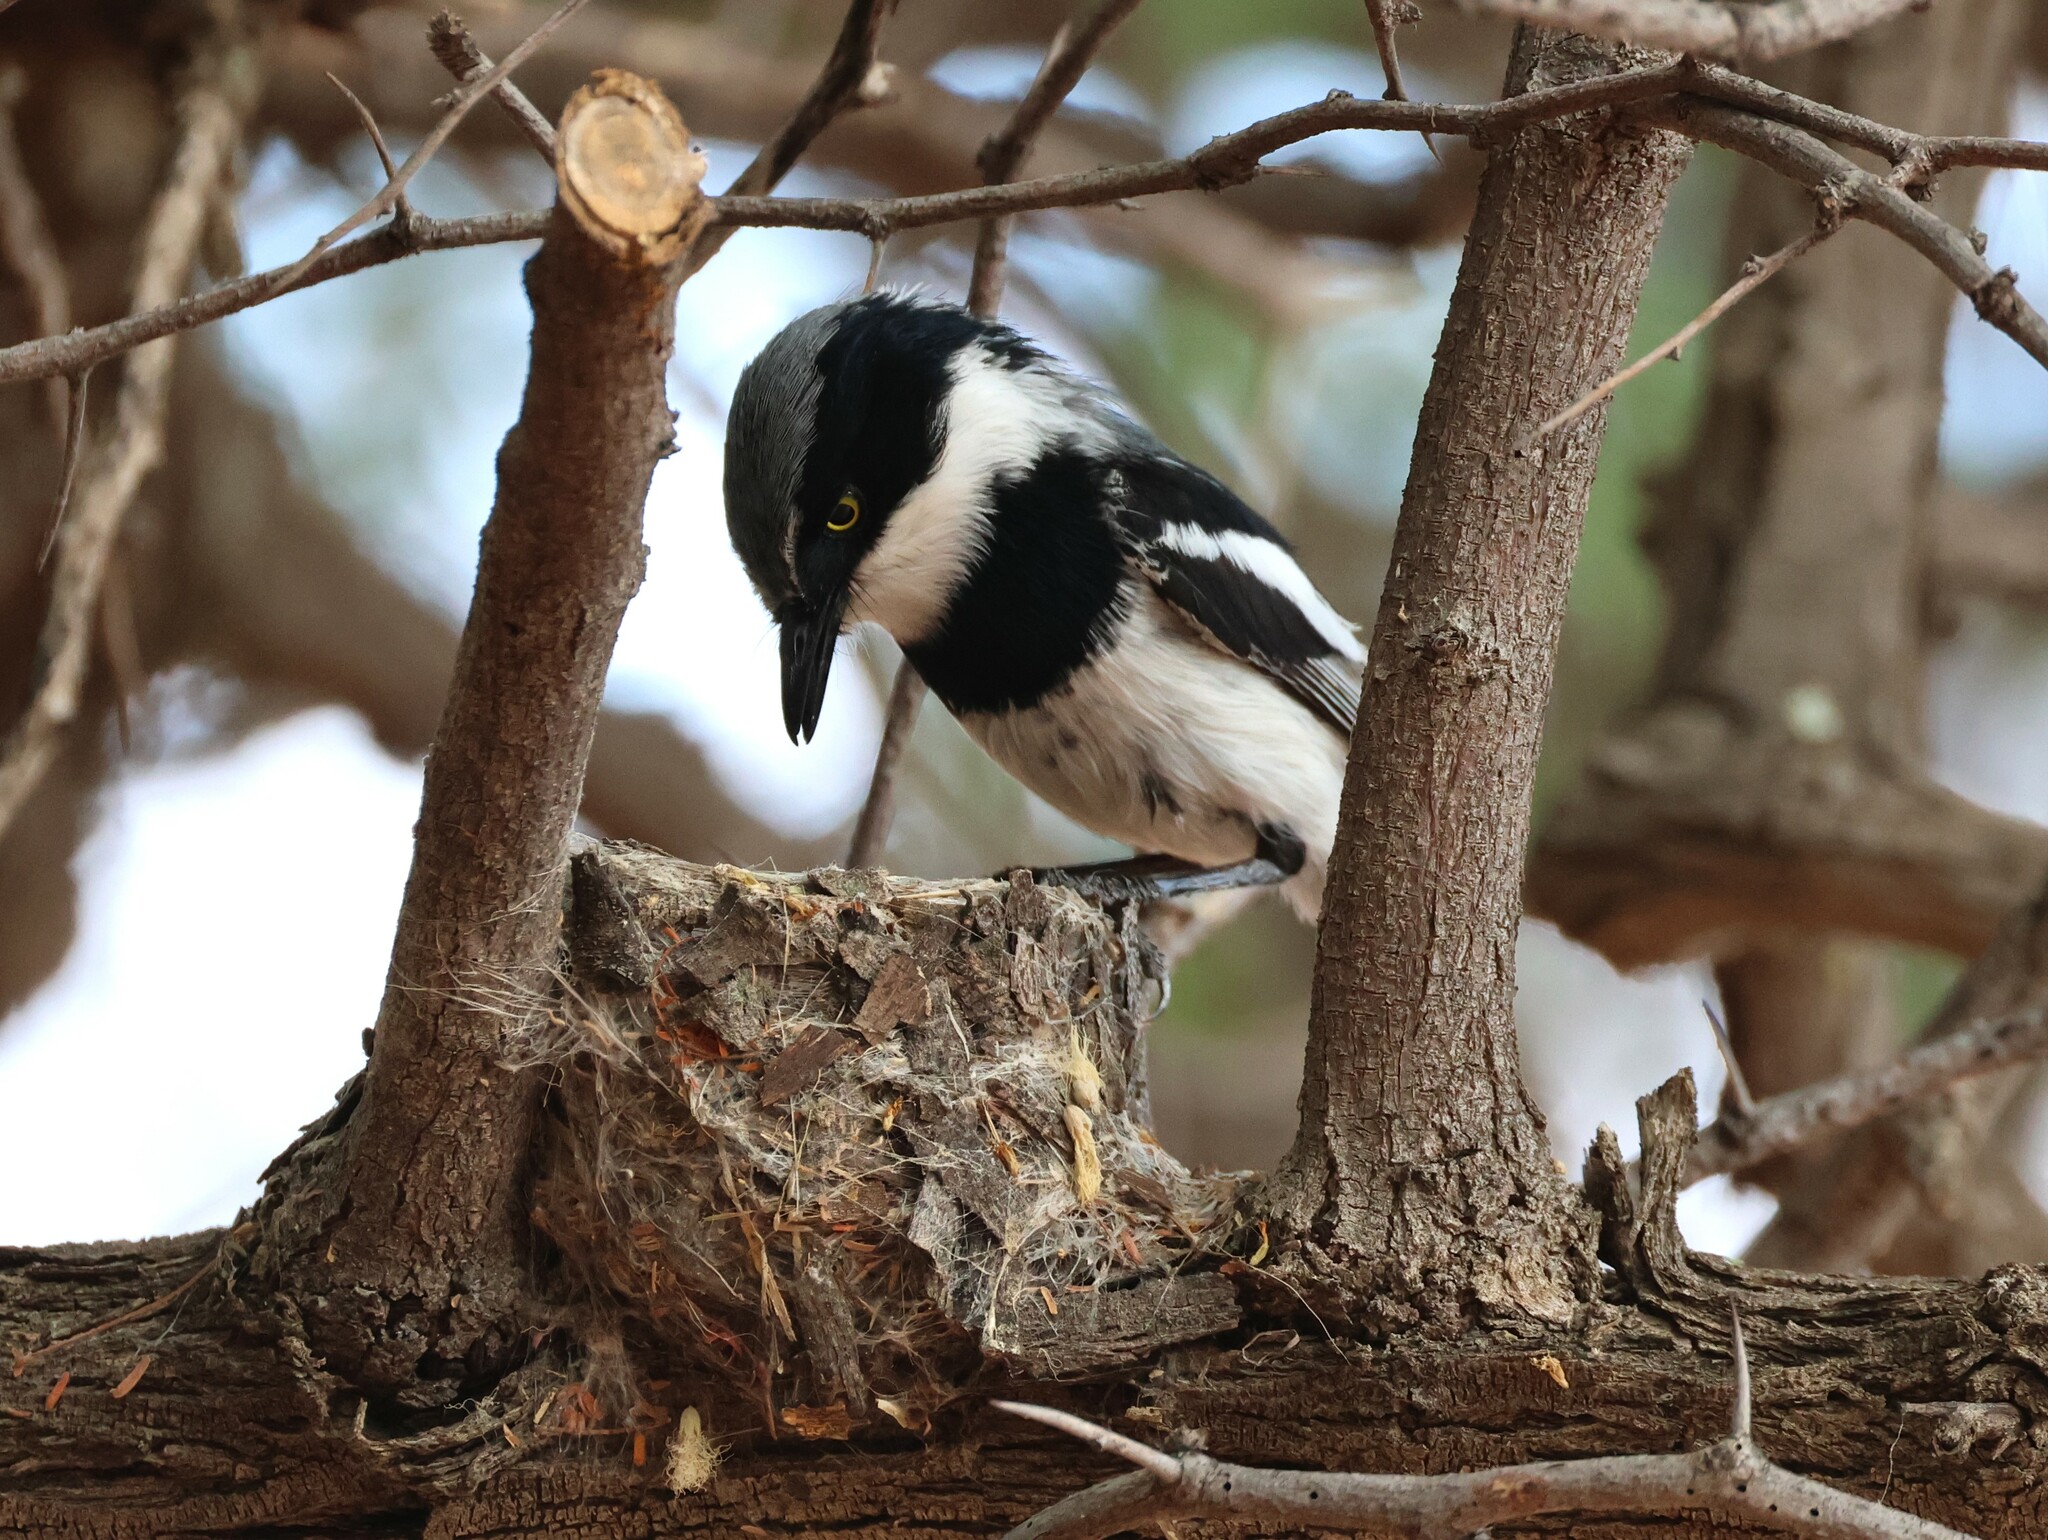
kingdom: Animalia
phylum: Chordata
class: Aves
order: Passeriformes
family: Platysteiridae
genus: Batis
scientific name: Batis pririt
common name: Pririt batis
